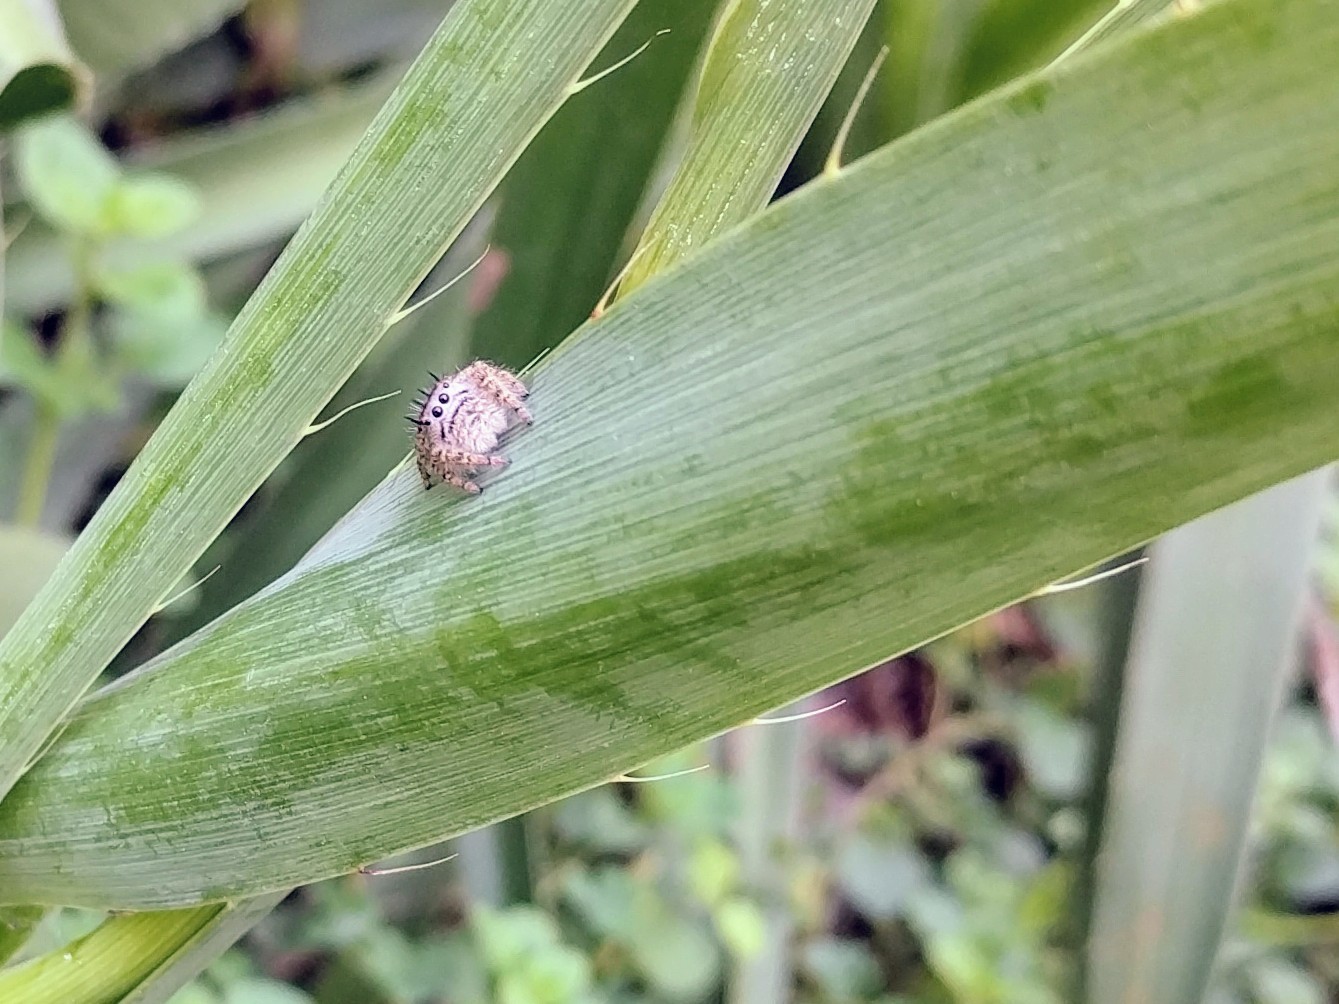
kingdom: Animalia
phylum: Arthropoda
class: Arachnida
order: Araneae
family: Salticidae
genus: Phidippus
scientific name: Phidippus putnami
